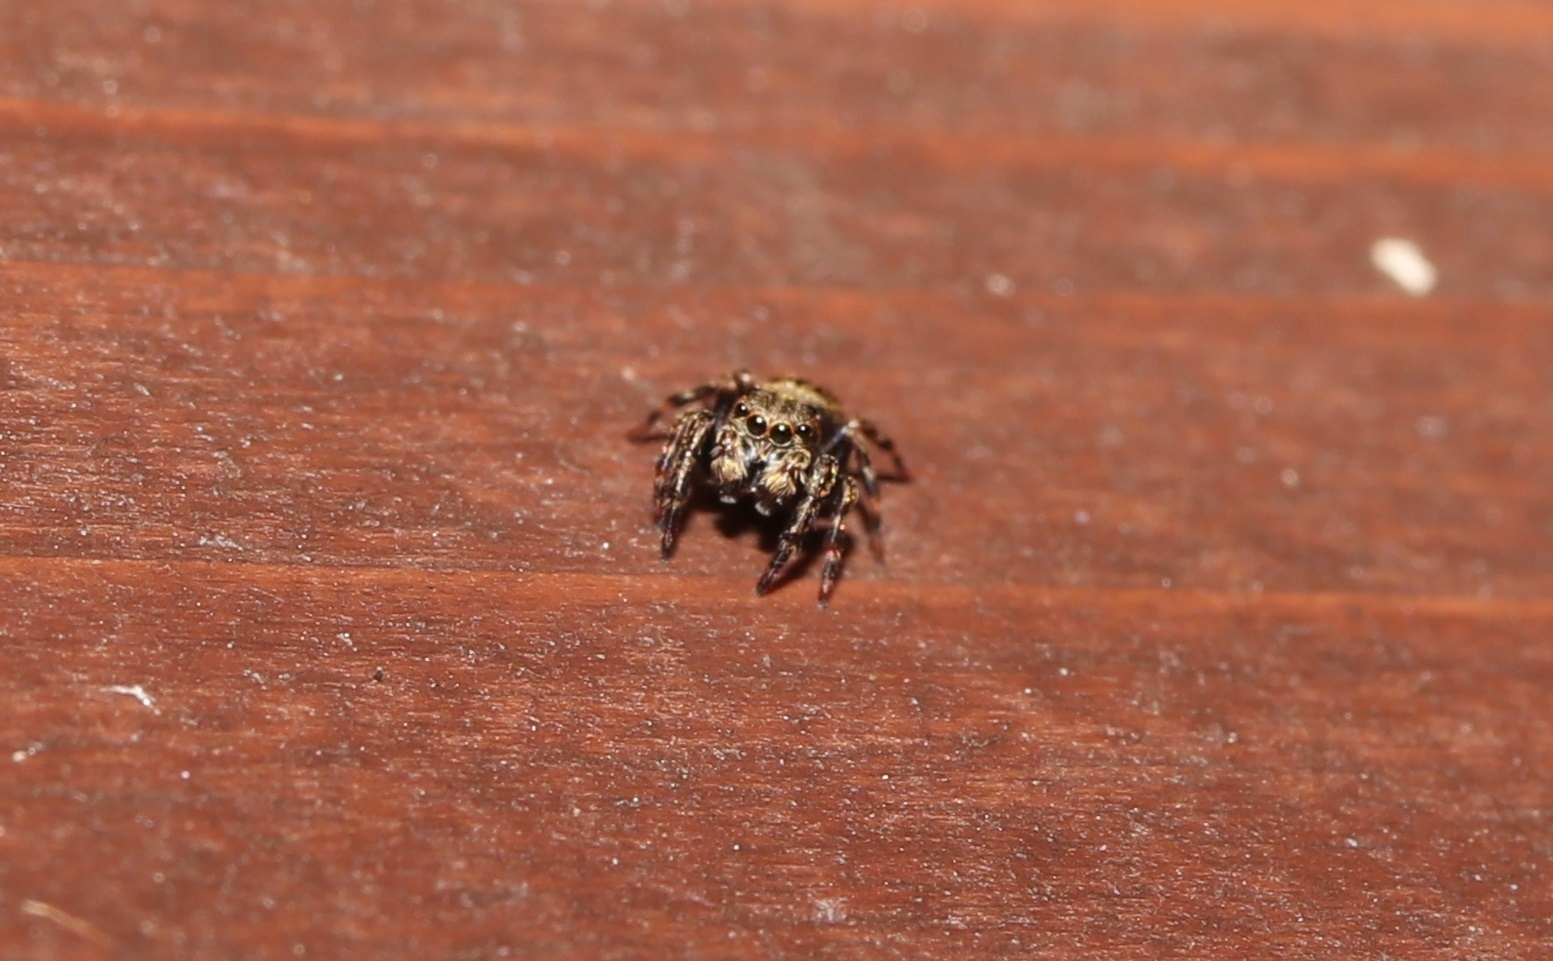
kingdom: Animalia
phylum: Arthropoda
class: Arachnida
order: Araneae
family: Salticidae
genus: Laufeia
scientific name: Laufeia aenea
